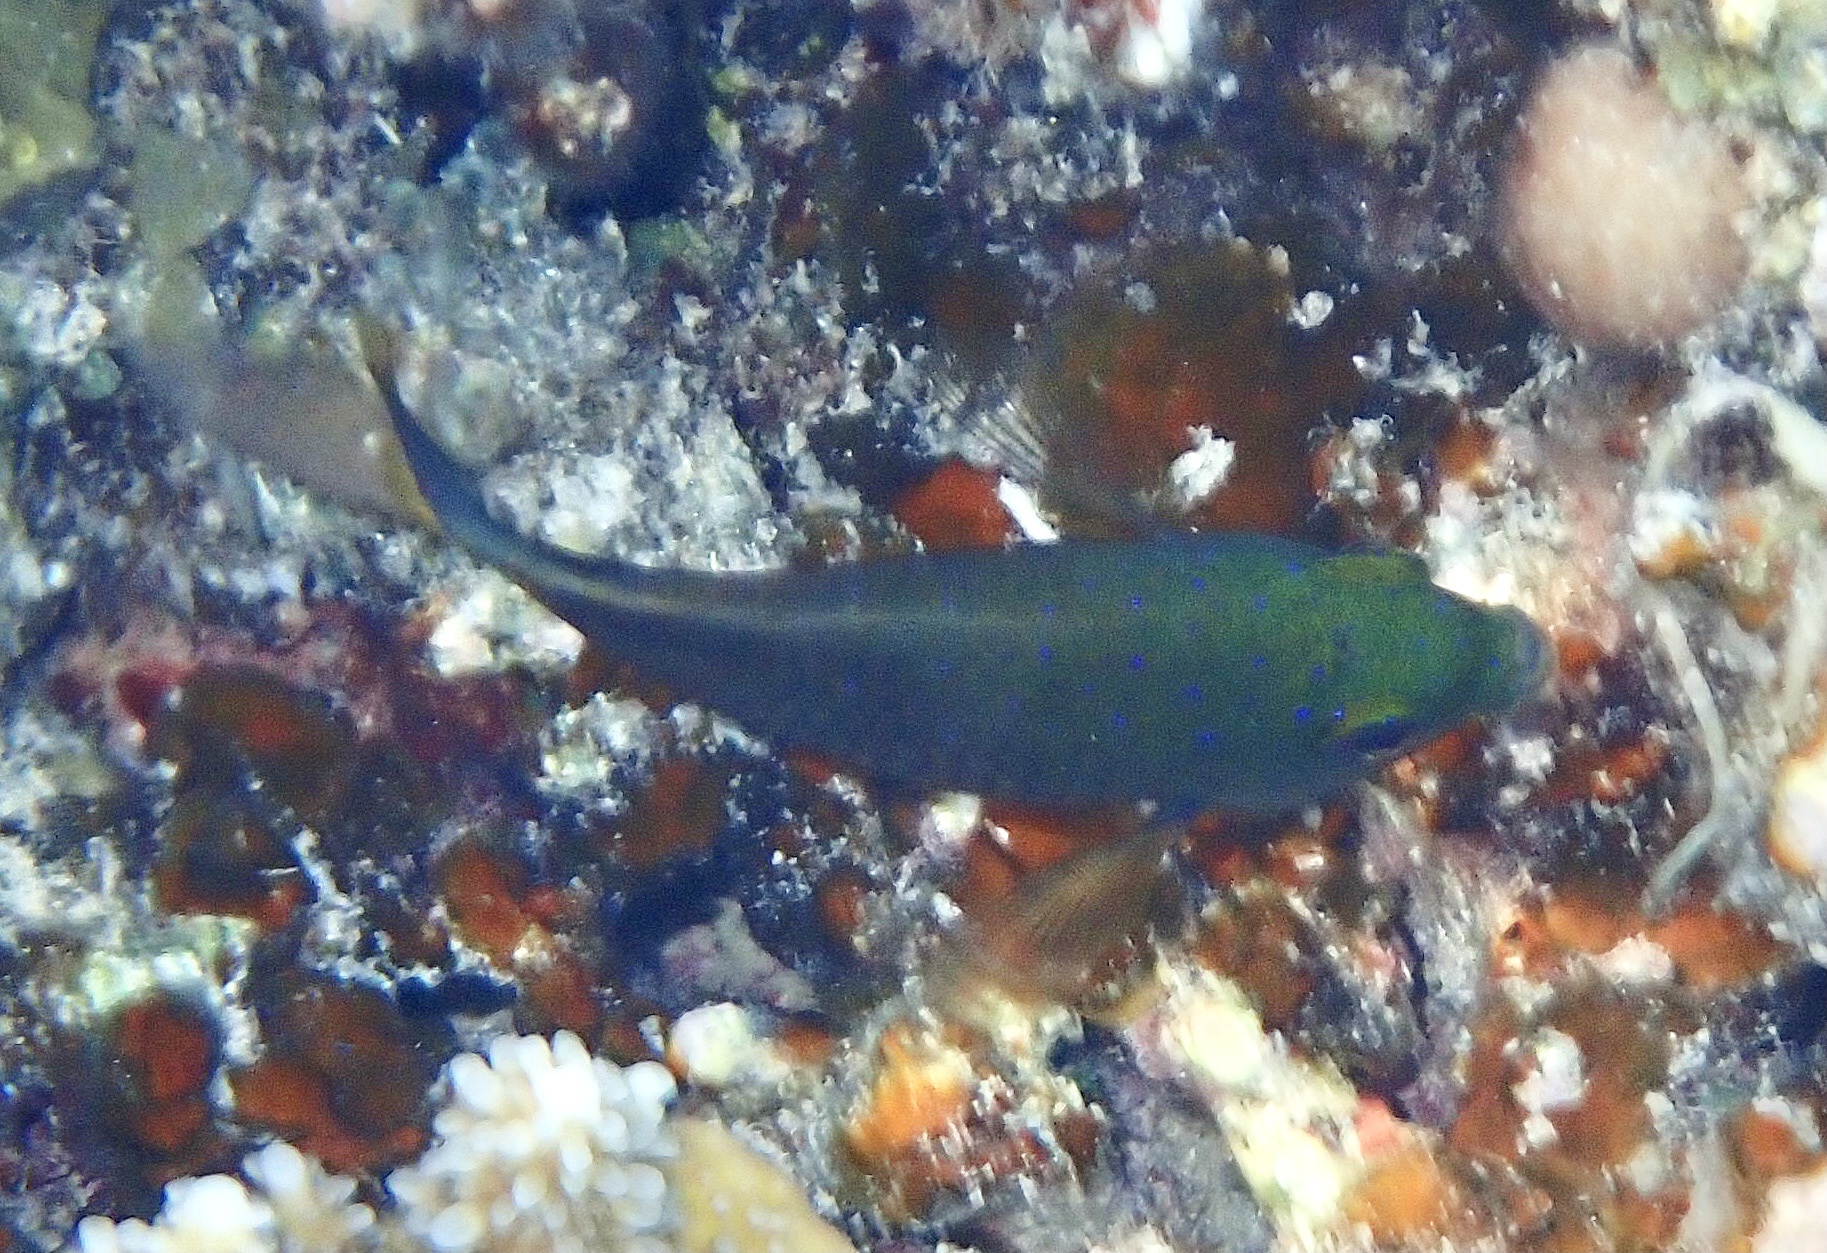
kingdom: Animalia
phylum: Chordata
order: Perciformes
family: Pomacentridae
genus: Plectroglyphidodon
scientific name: Plectroglyphidodon lacrymatus
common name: Jewel damsel
